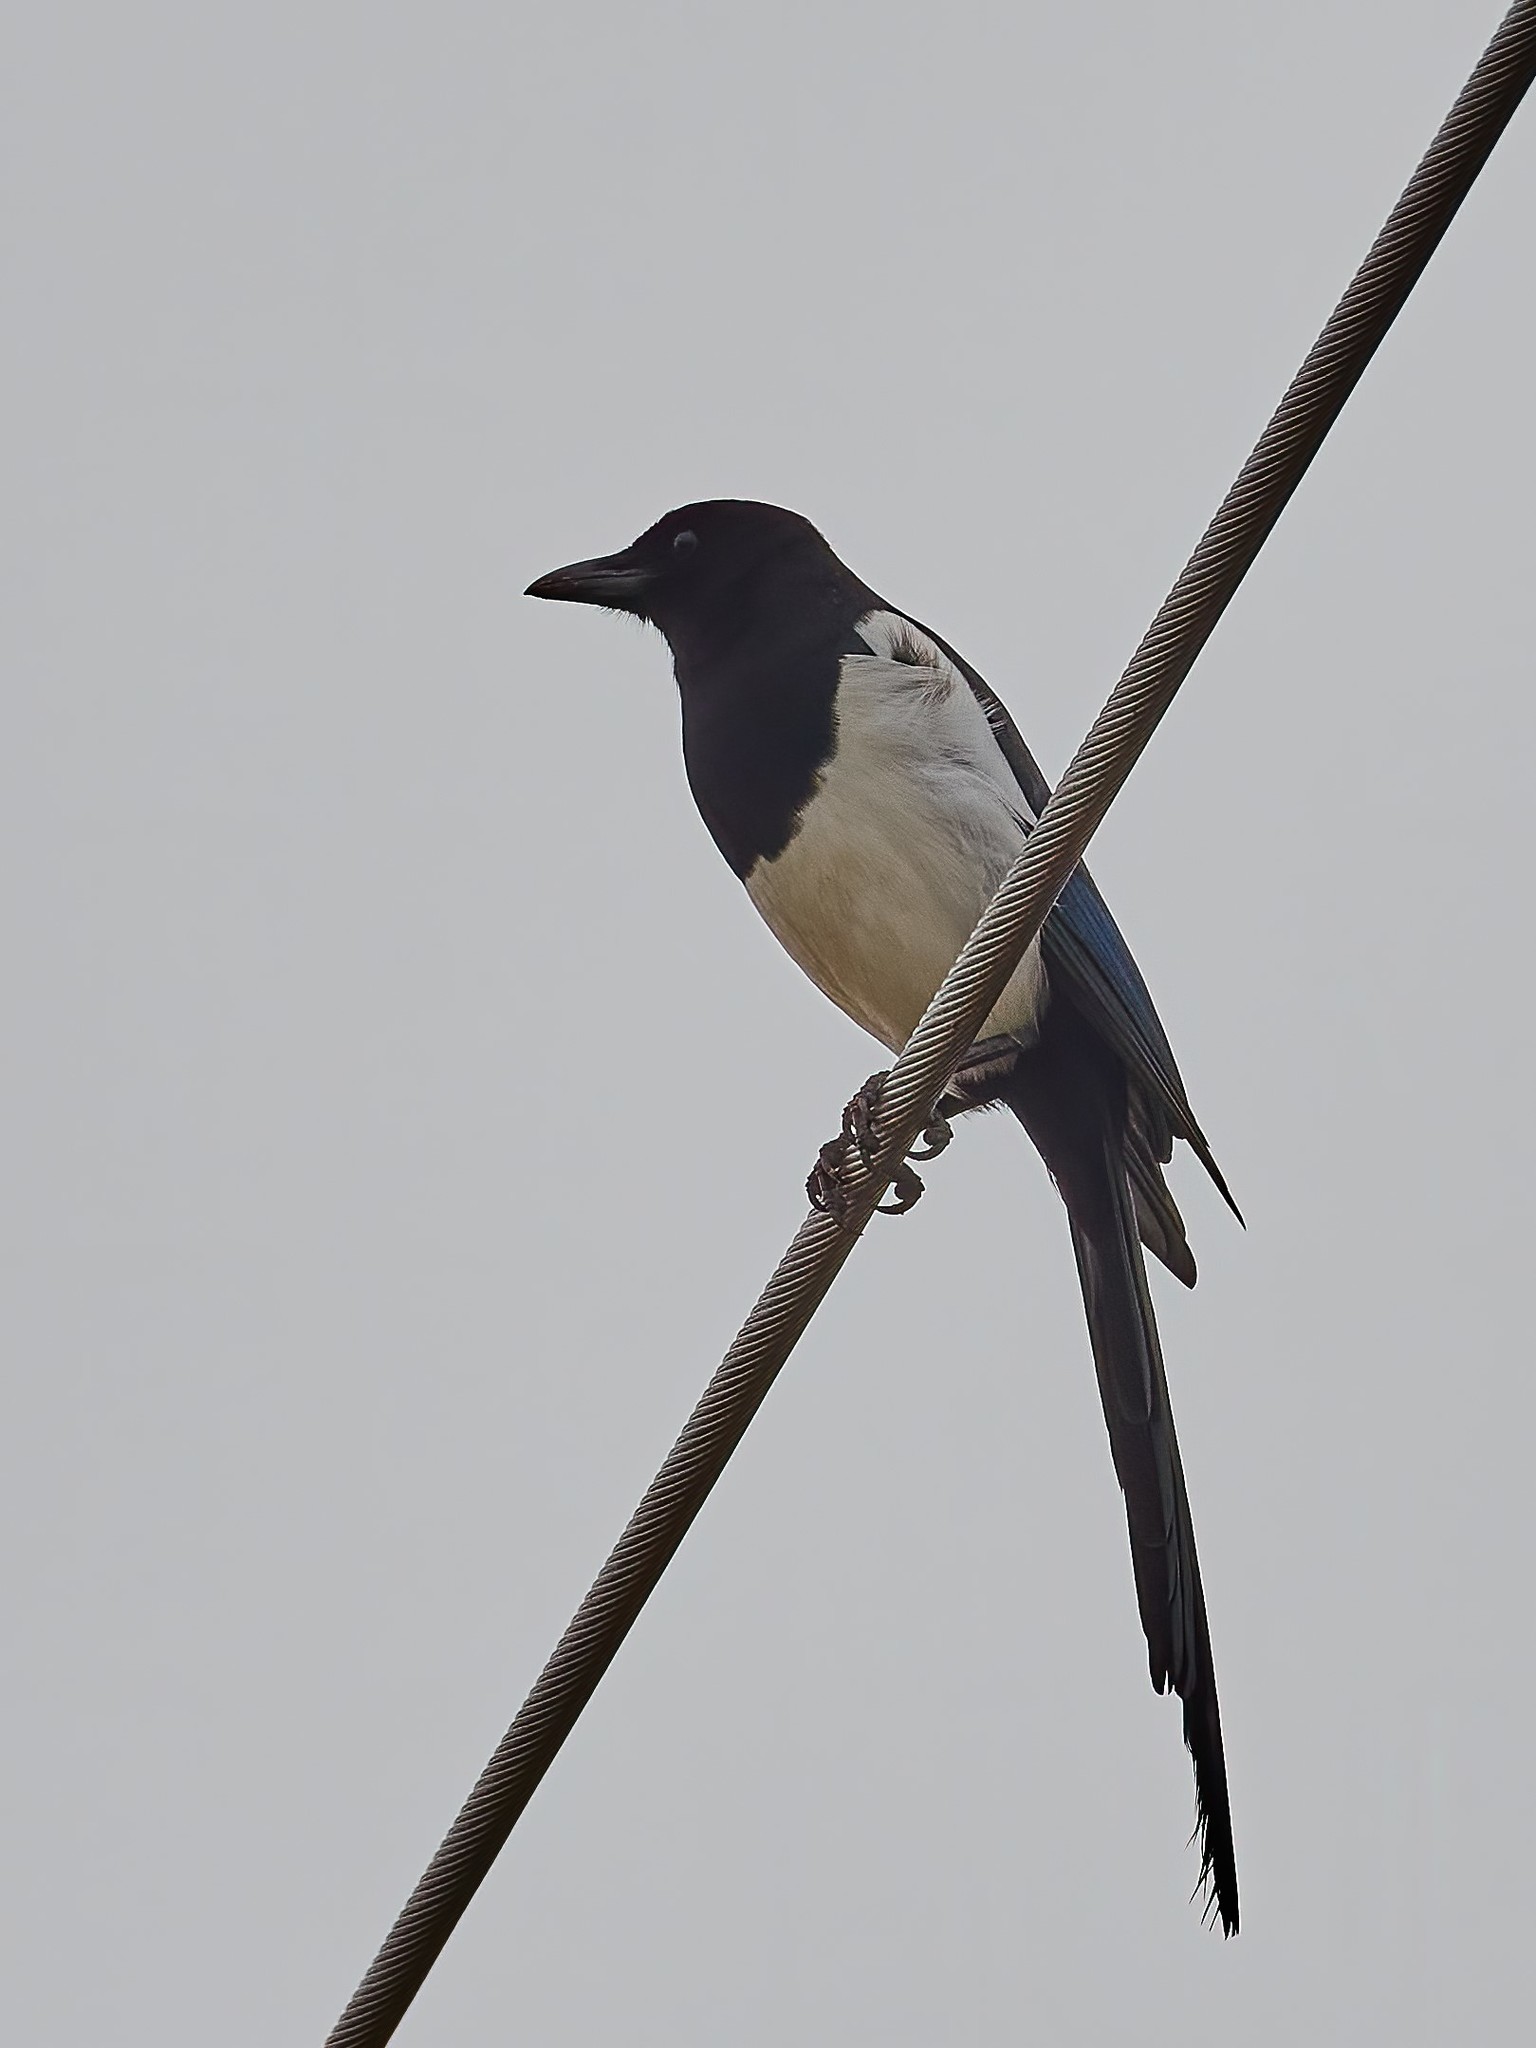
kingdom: Animalia
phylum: Chordata
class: Aves
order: Passeriformes
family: Corvidae
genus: Pica
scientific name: Pica pica
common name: Eurasian magpie
